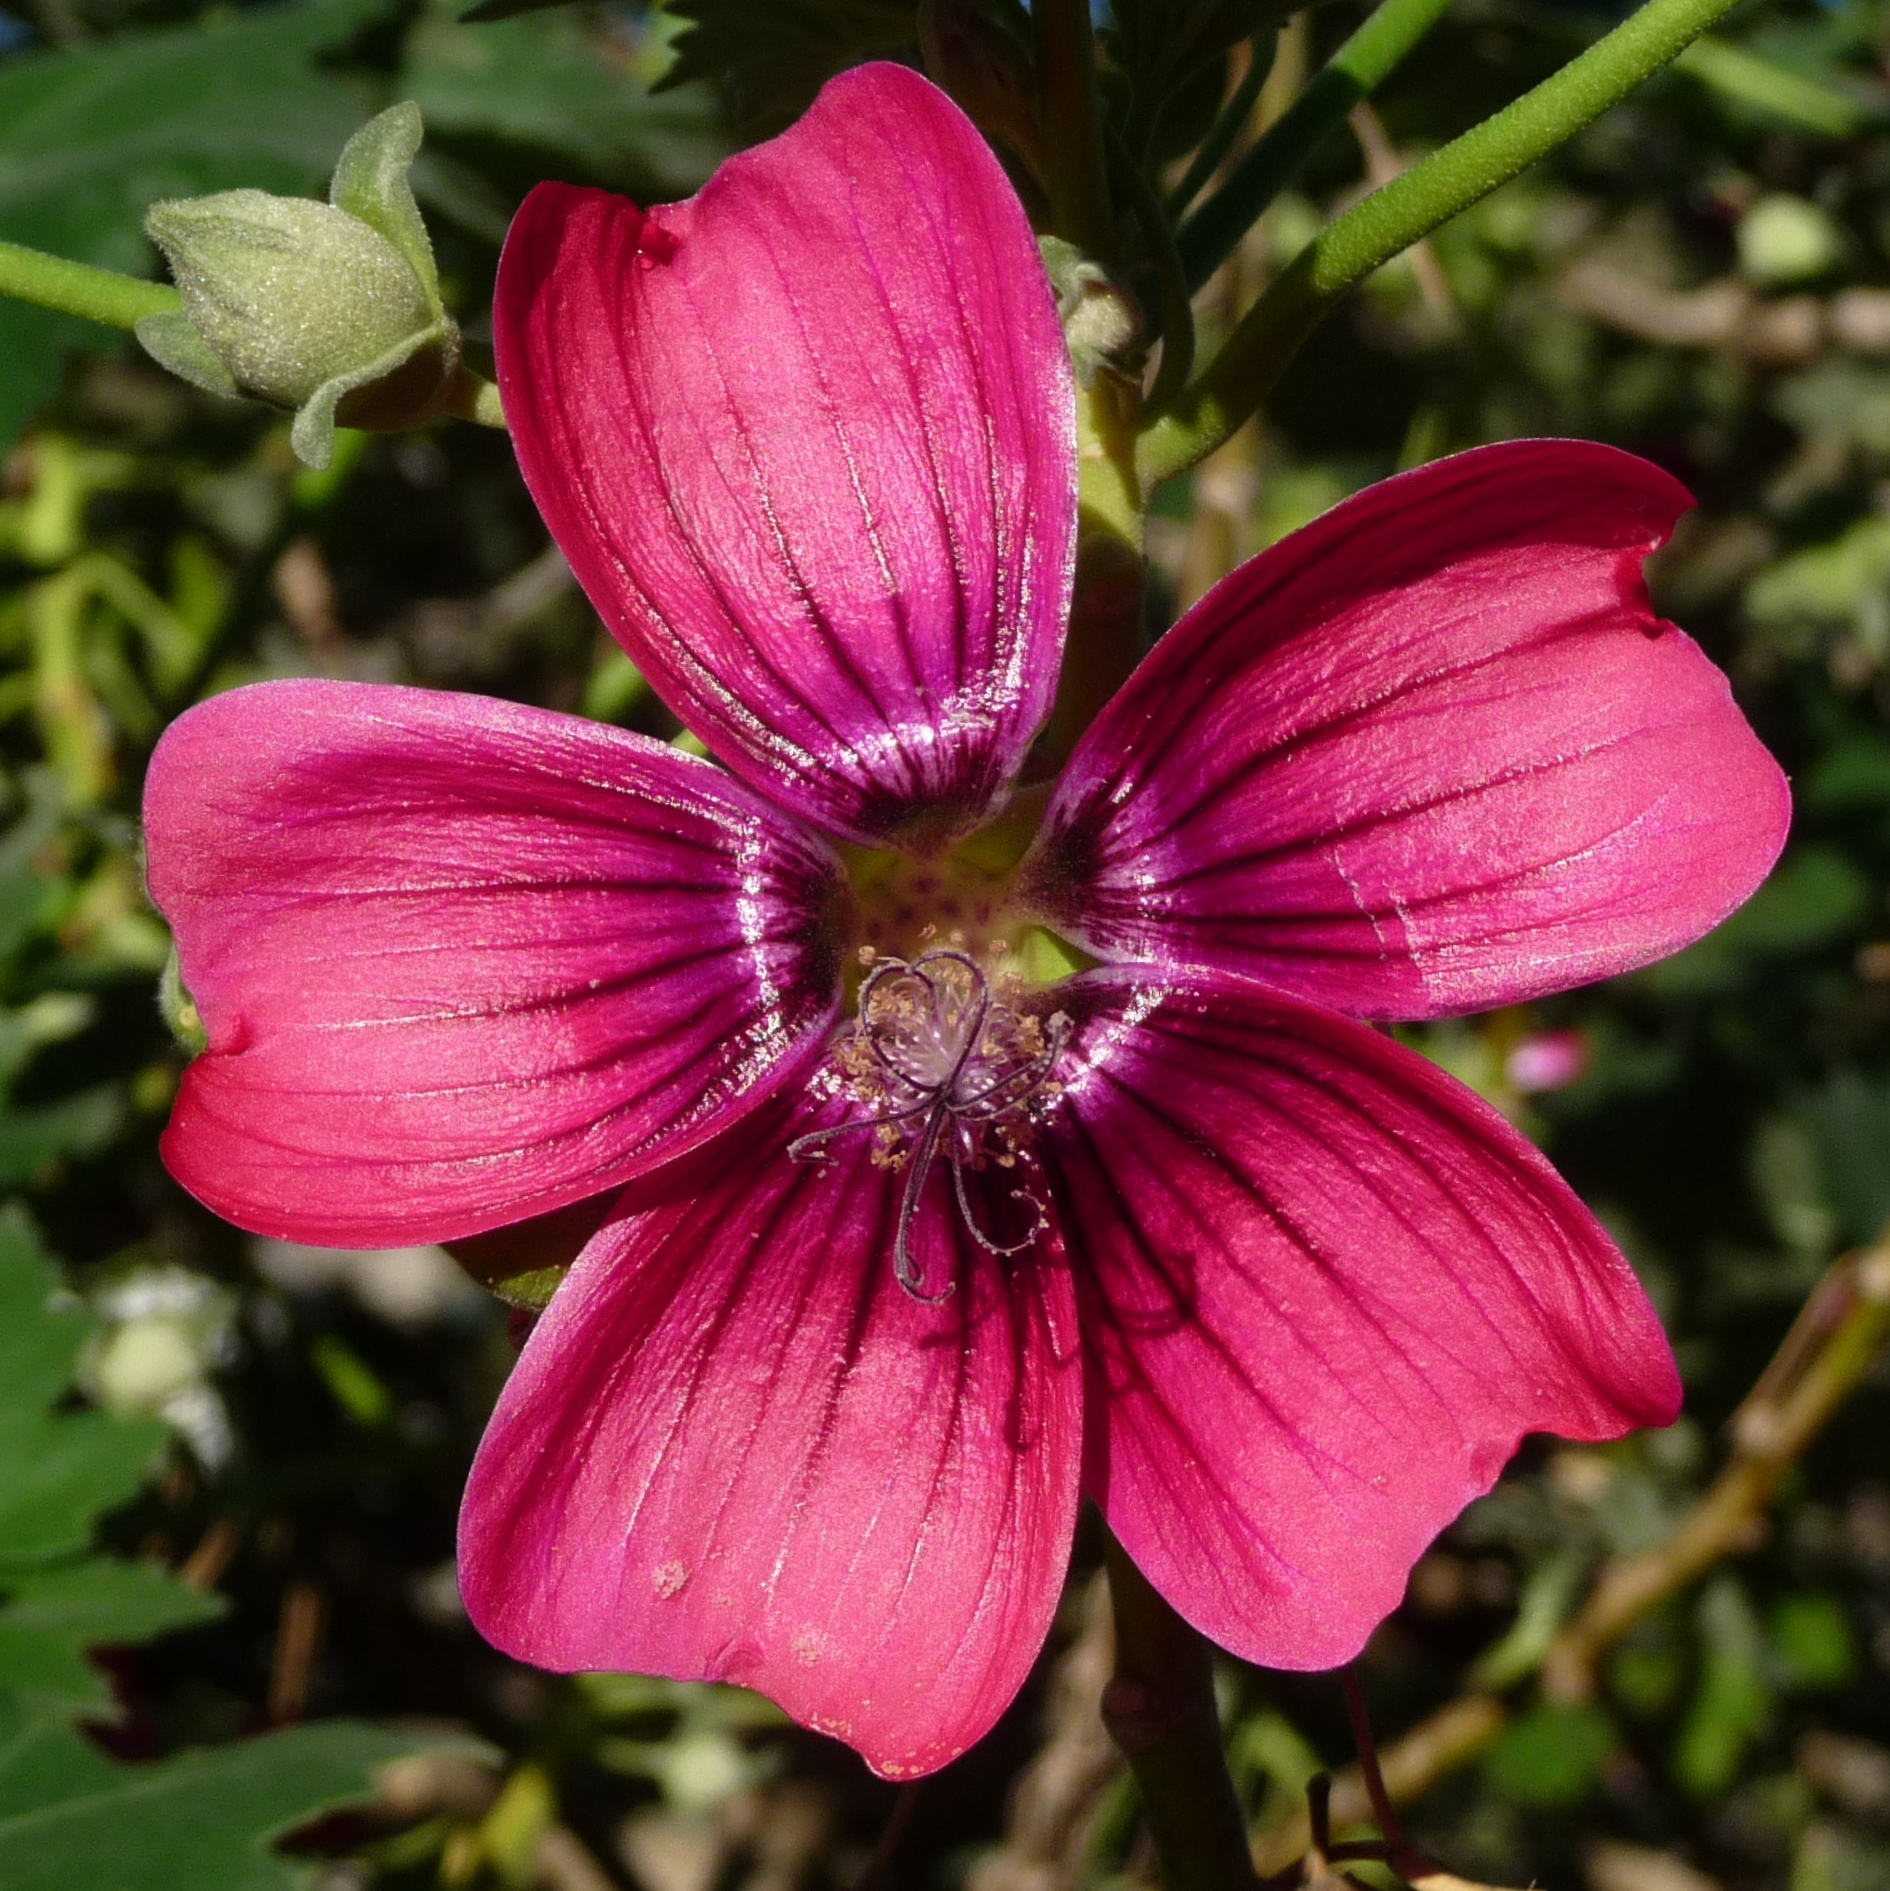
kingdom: Plantae
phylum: Tracheophyta
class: Magnoliopsida
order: Malvales
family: Malvaceae
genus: Malva
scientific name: Malva assurgentiflora
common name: Island mallow
